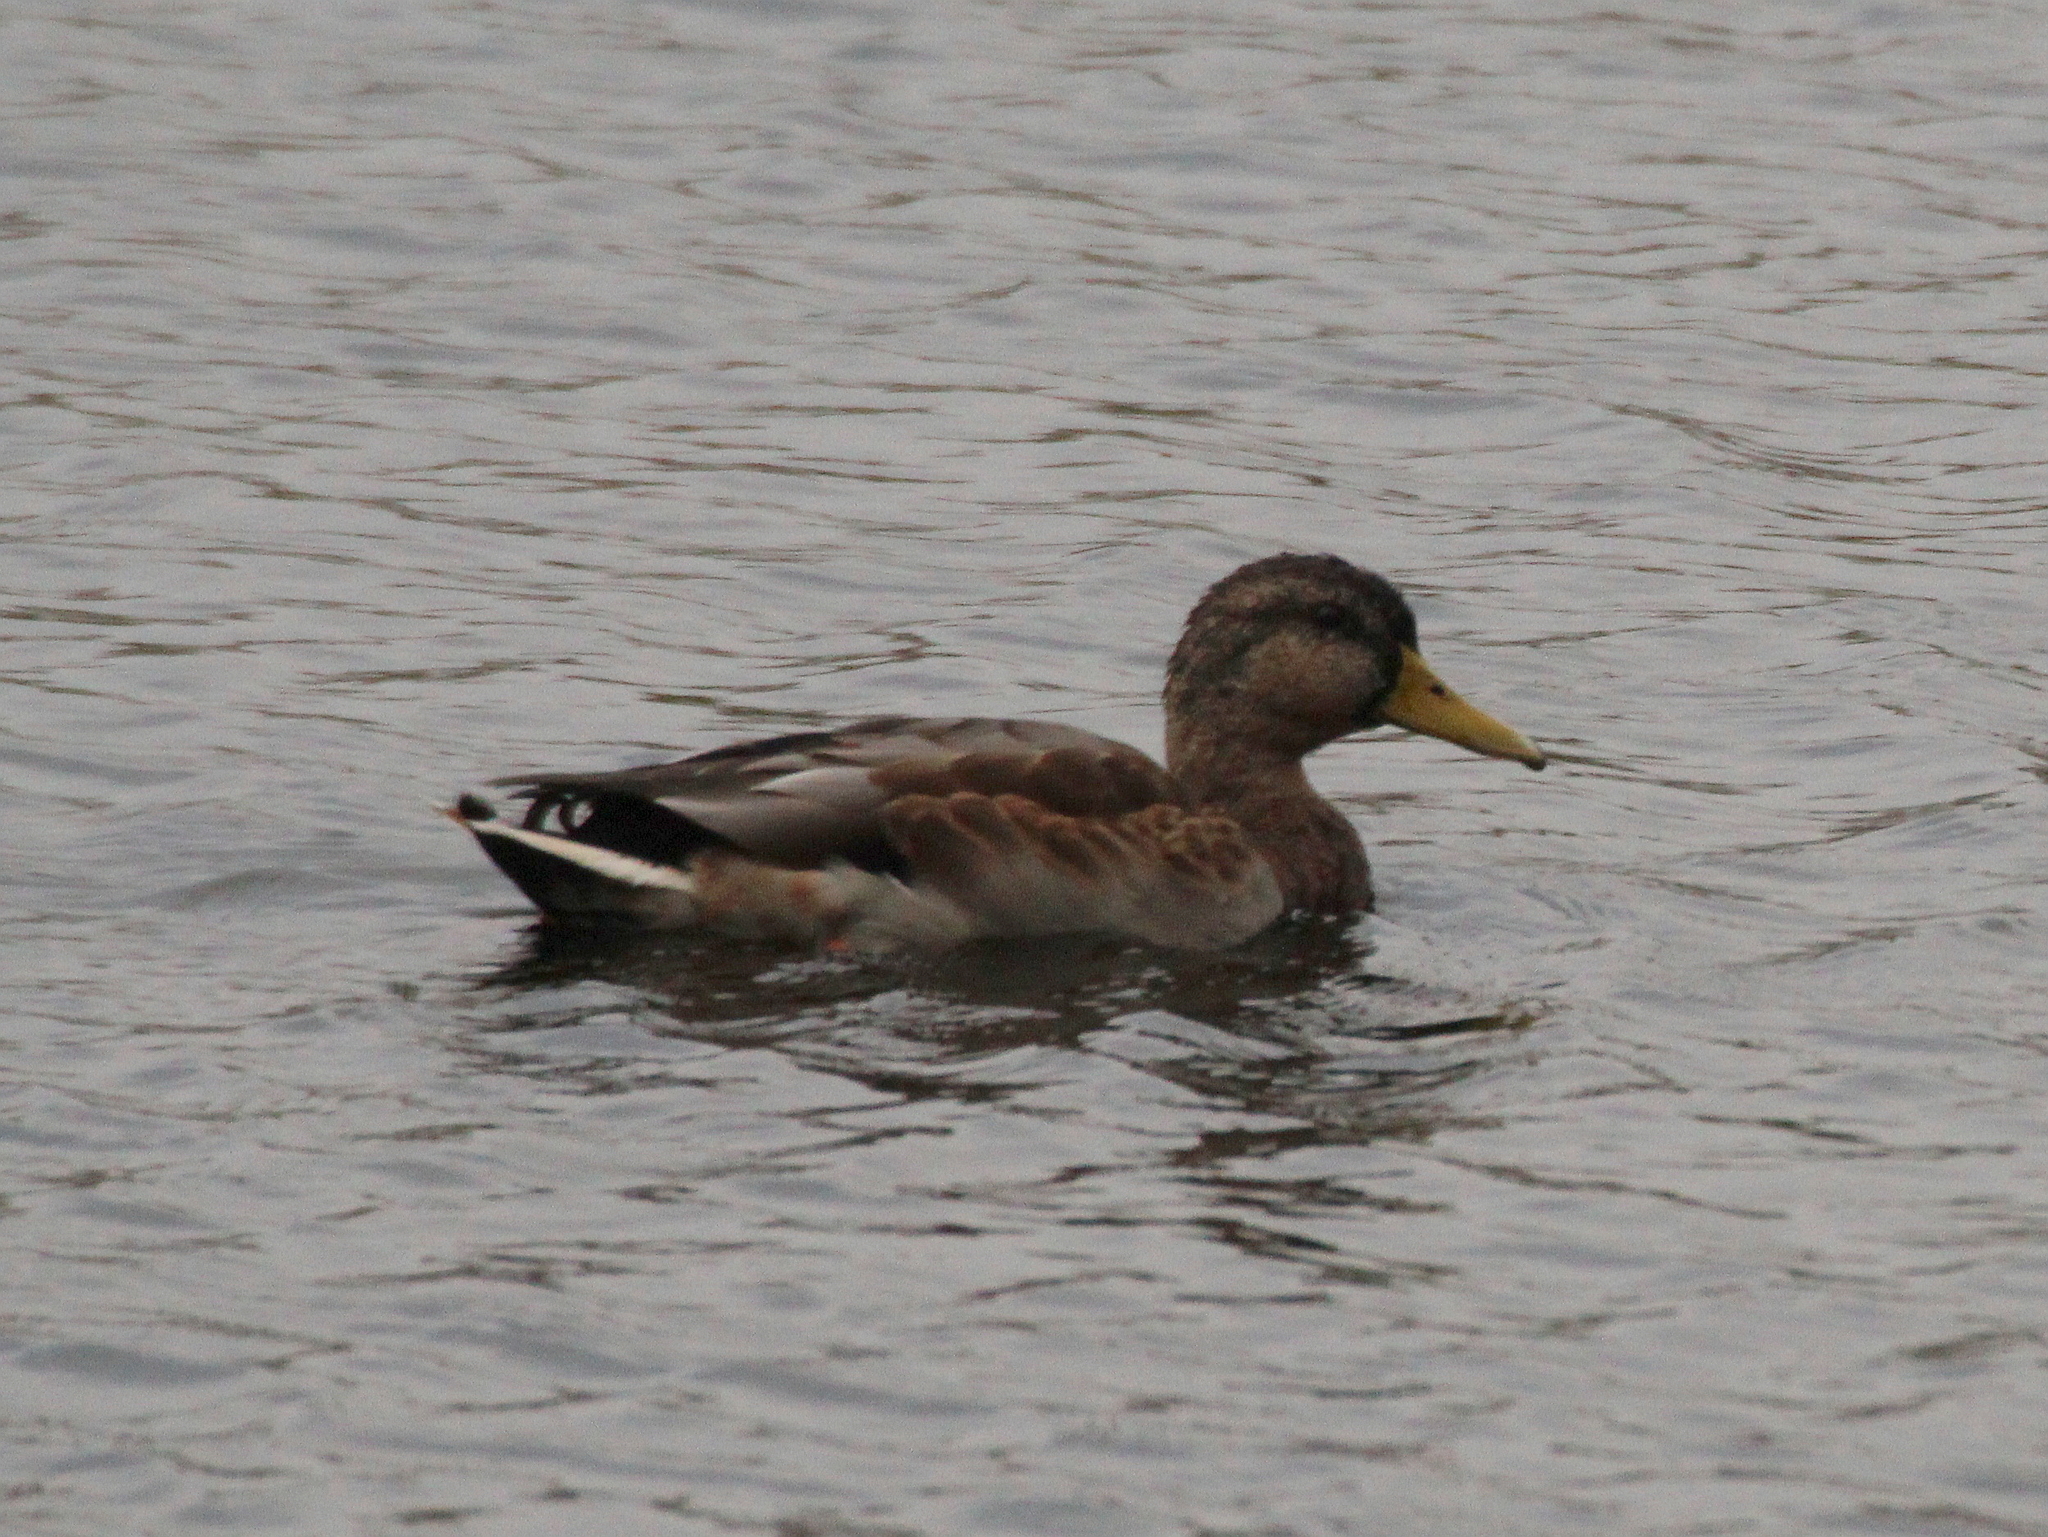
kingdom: Animalia
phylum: Chordata
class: Aves
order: Anseriformes
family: Anatidae
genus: Anas
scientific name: Anas platyrhynchos
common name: Mallard
